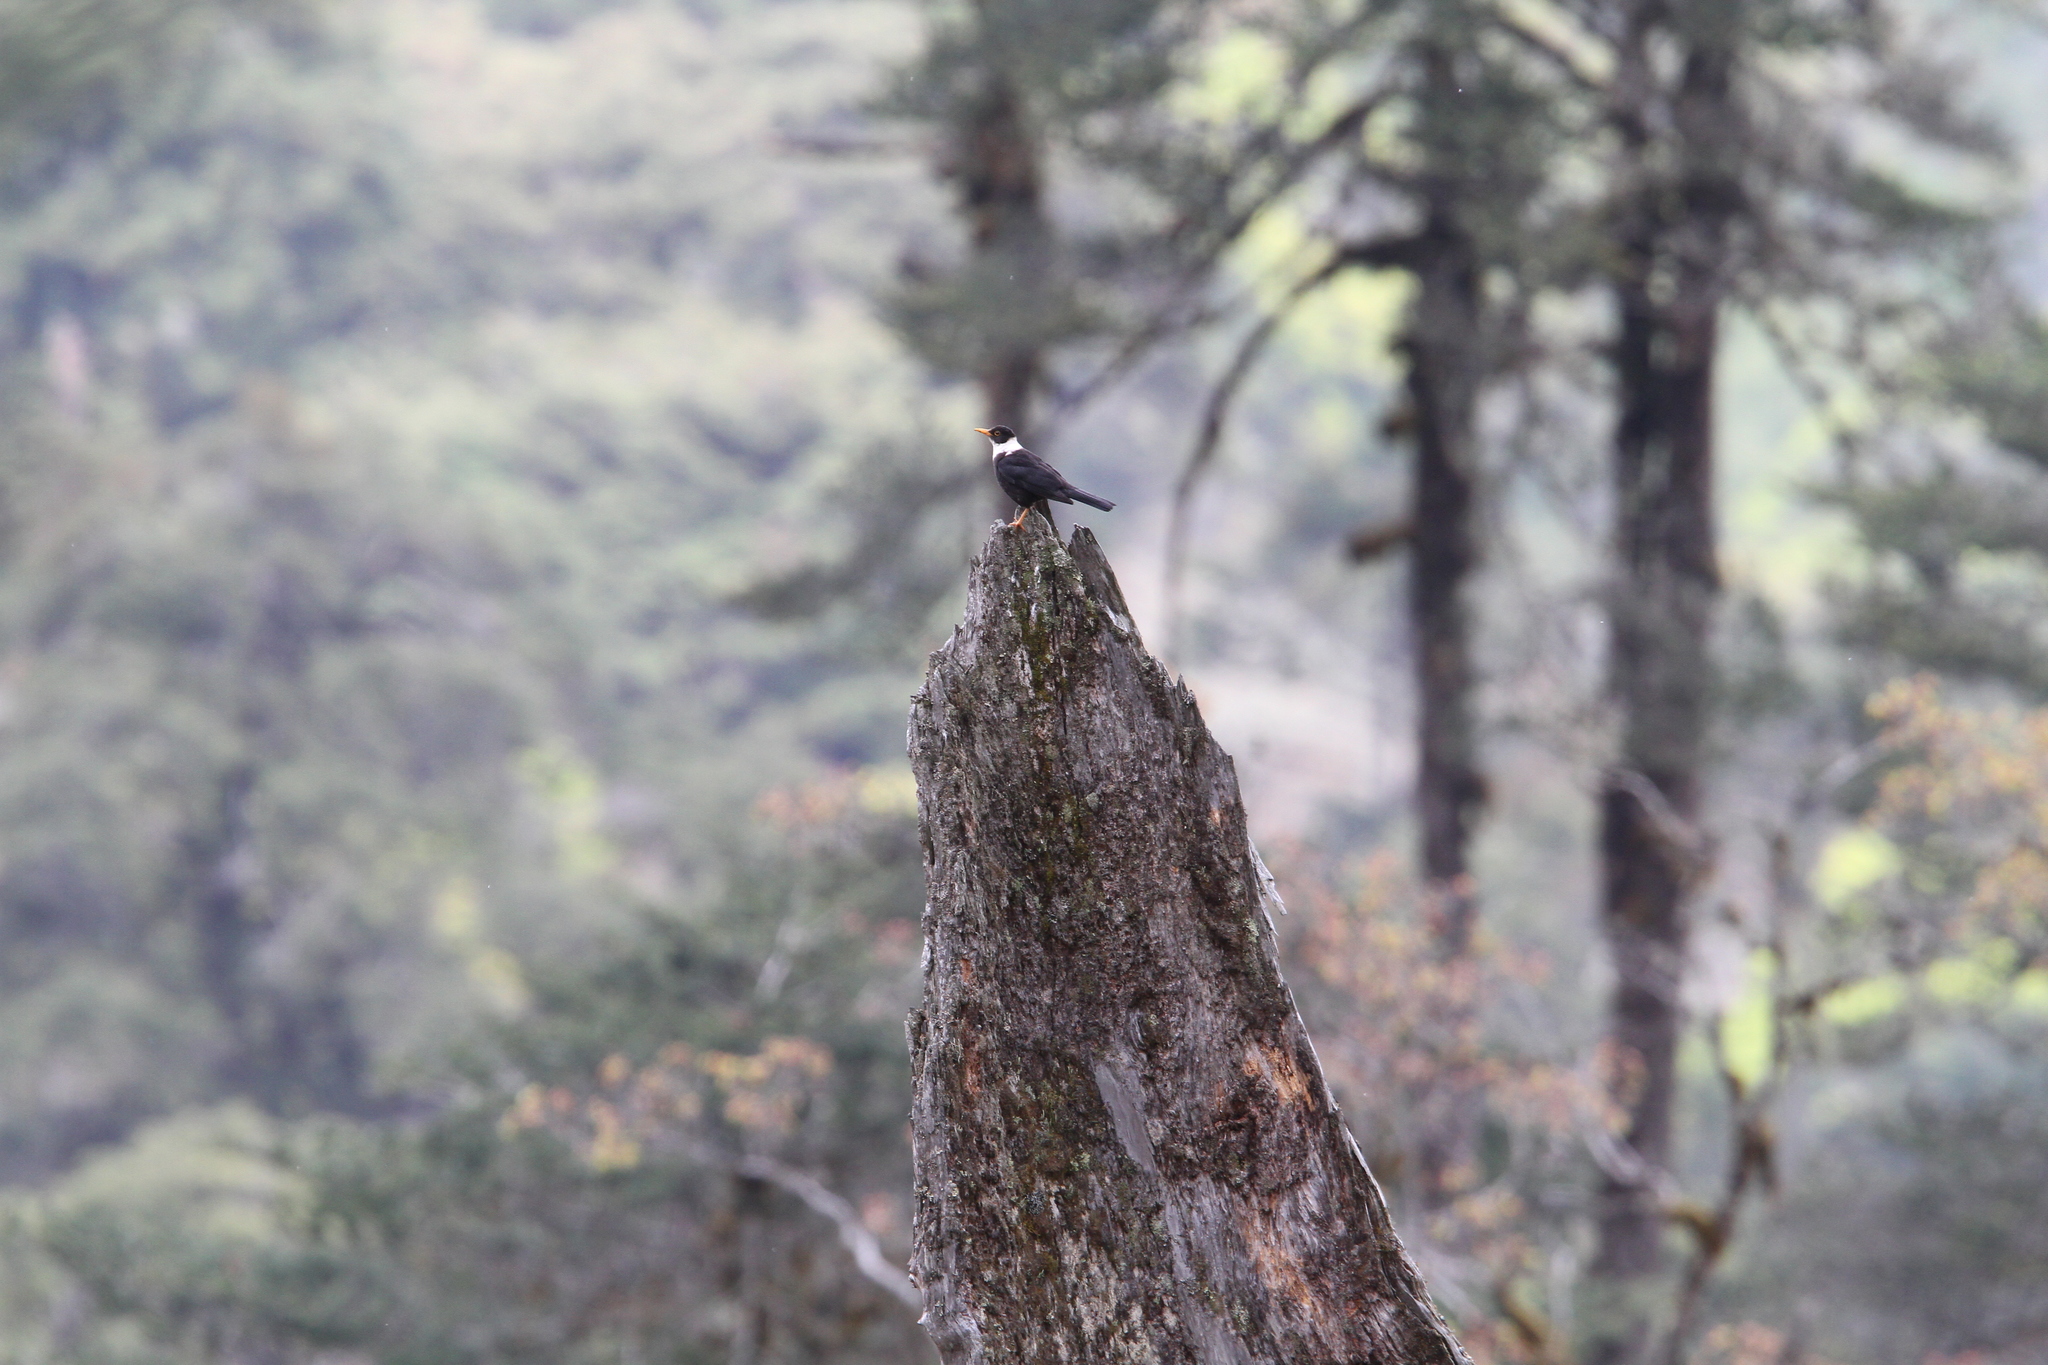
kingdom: Animalia
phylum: Chordata
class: Aves
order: Passeriformes
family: Turdidae
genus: Turdus
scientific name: Turdus albocinctus
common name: White-collared blackbird
